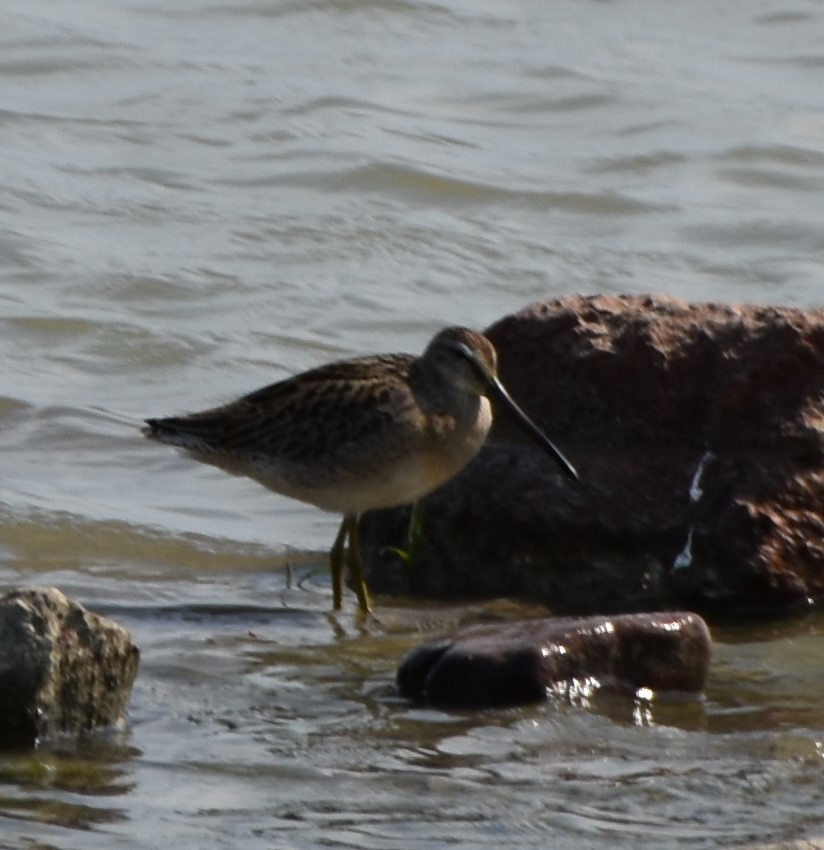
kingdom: Animalia
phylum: Chordata
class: Aves
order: Charadriiformes
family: Scolopacidae
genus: Limnodromus
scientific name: Limnodromus griseus
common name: Short-billed dowitcher
